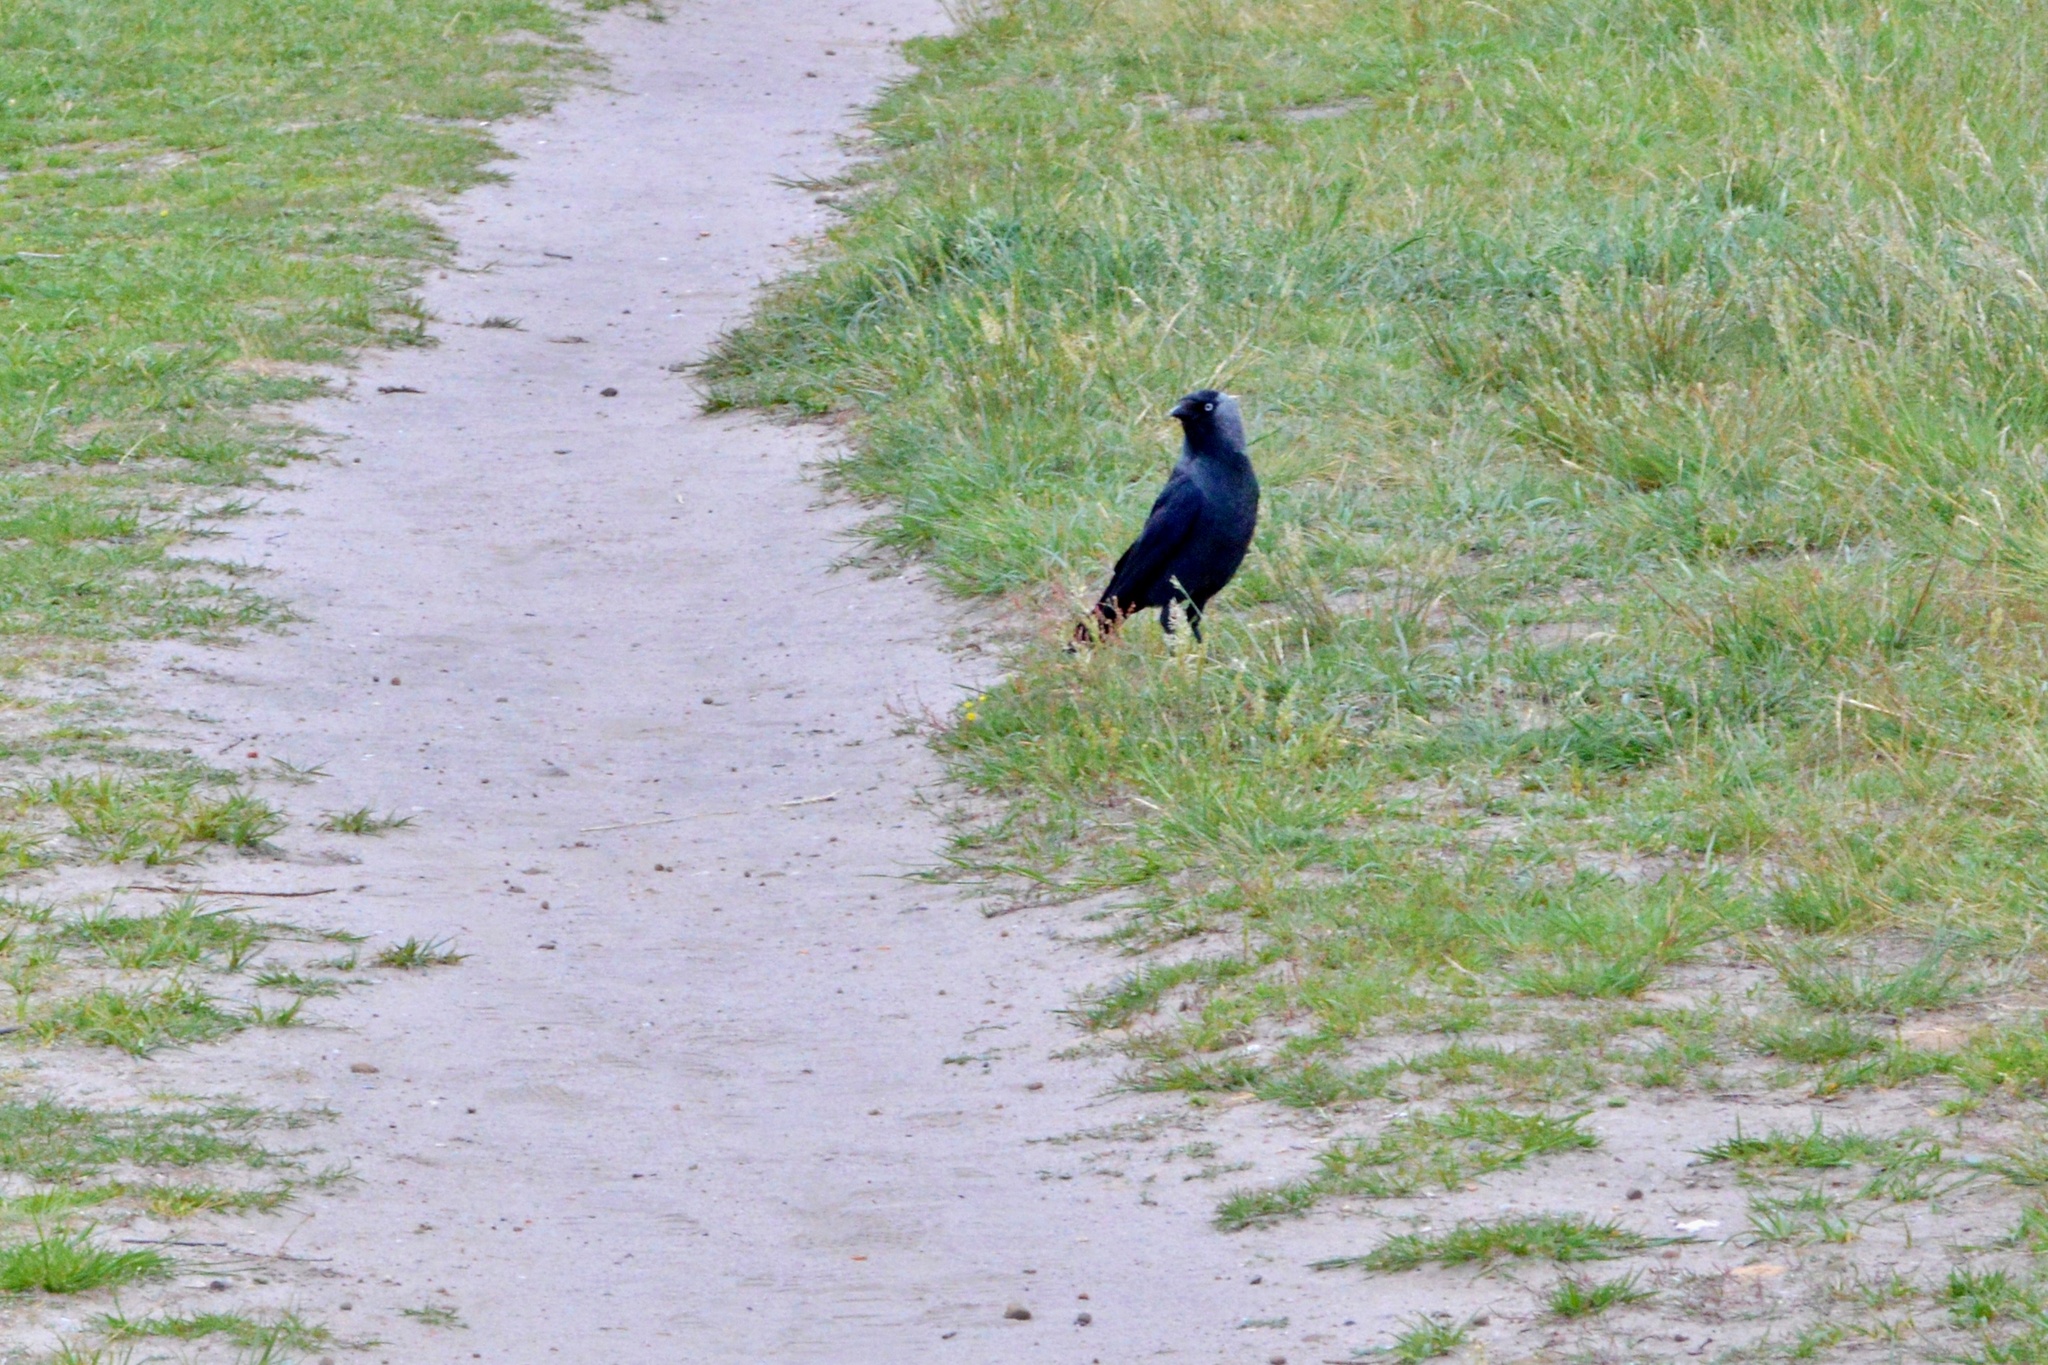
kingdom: Animalia
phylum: Chordata
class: Aves
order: Passeriformes
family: Corvidae
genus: Coloeus
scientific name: Coloeus monedula
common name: Western jackdaw
